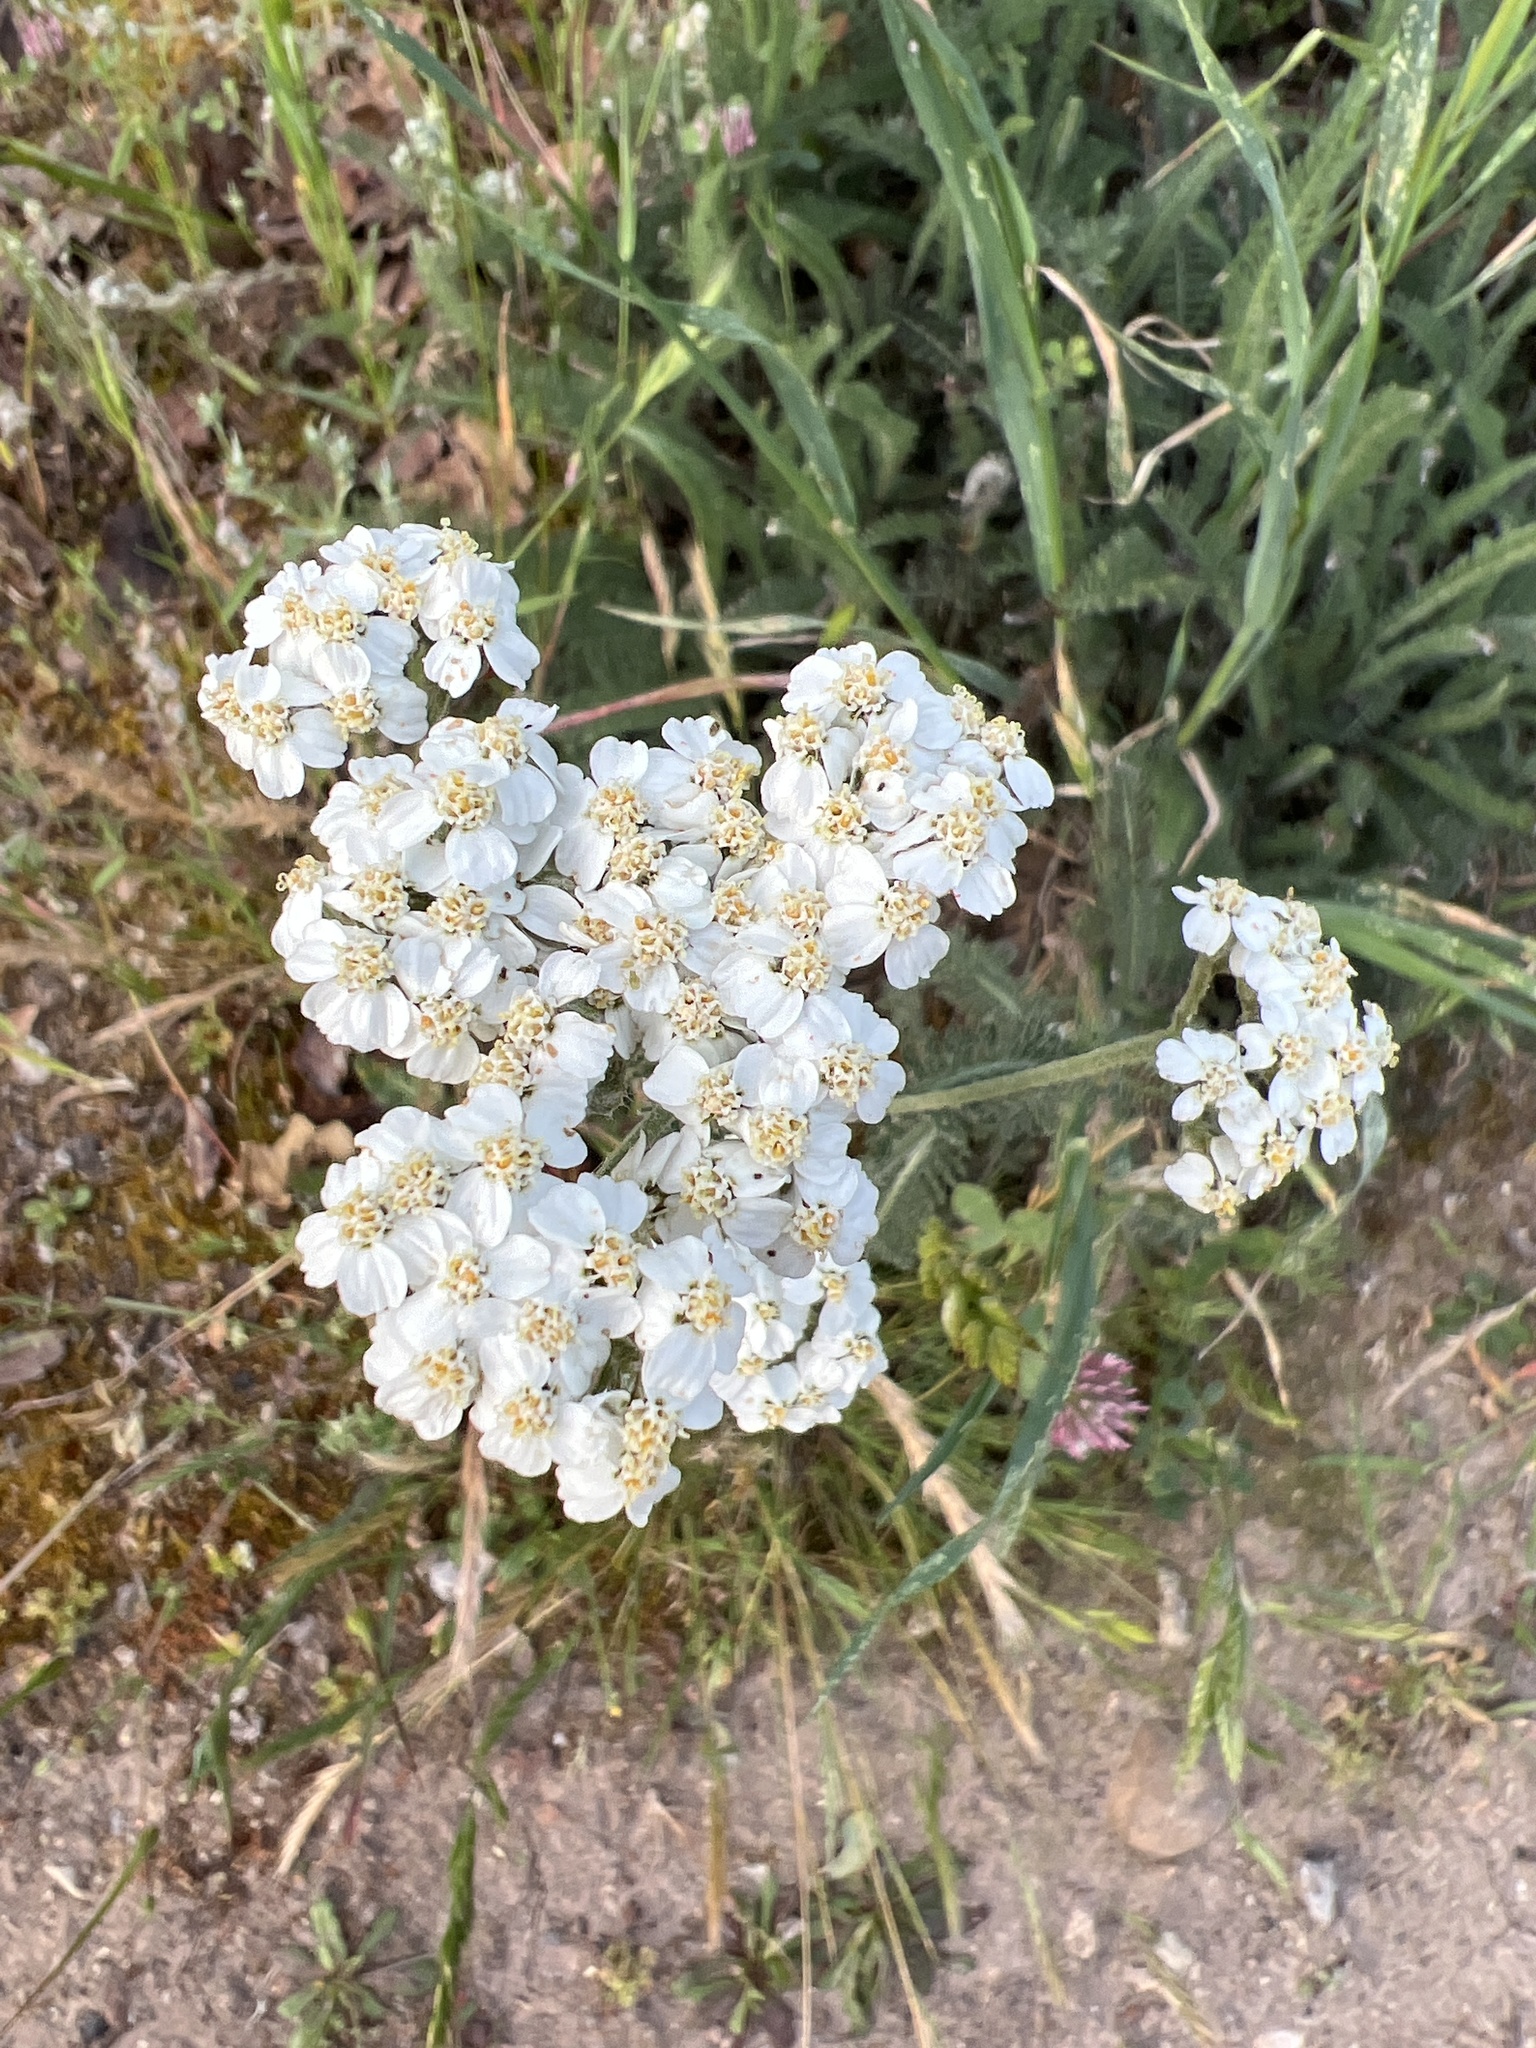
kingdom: Plantae
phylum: Tracheophyta
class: Magnoliopsida
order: Asterales
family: Asteraceae
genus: Achillea
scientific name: Achillea millefolium
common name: Yarrow
